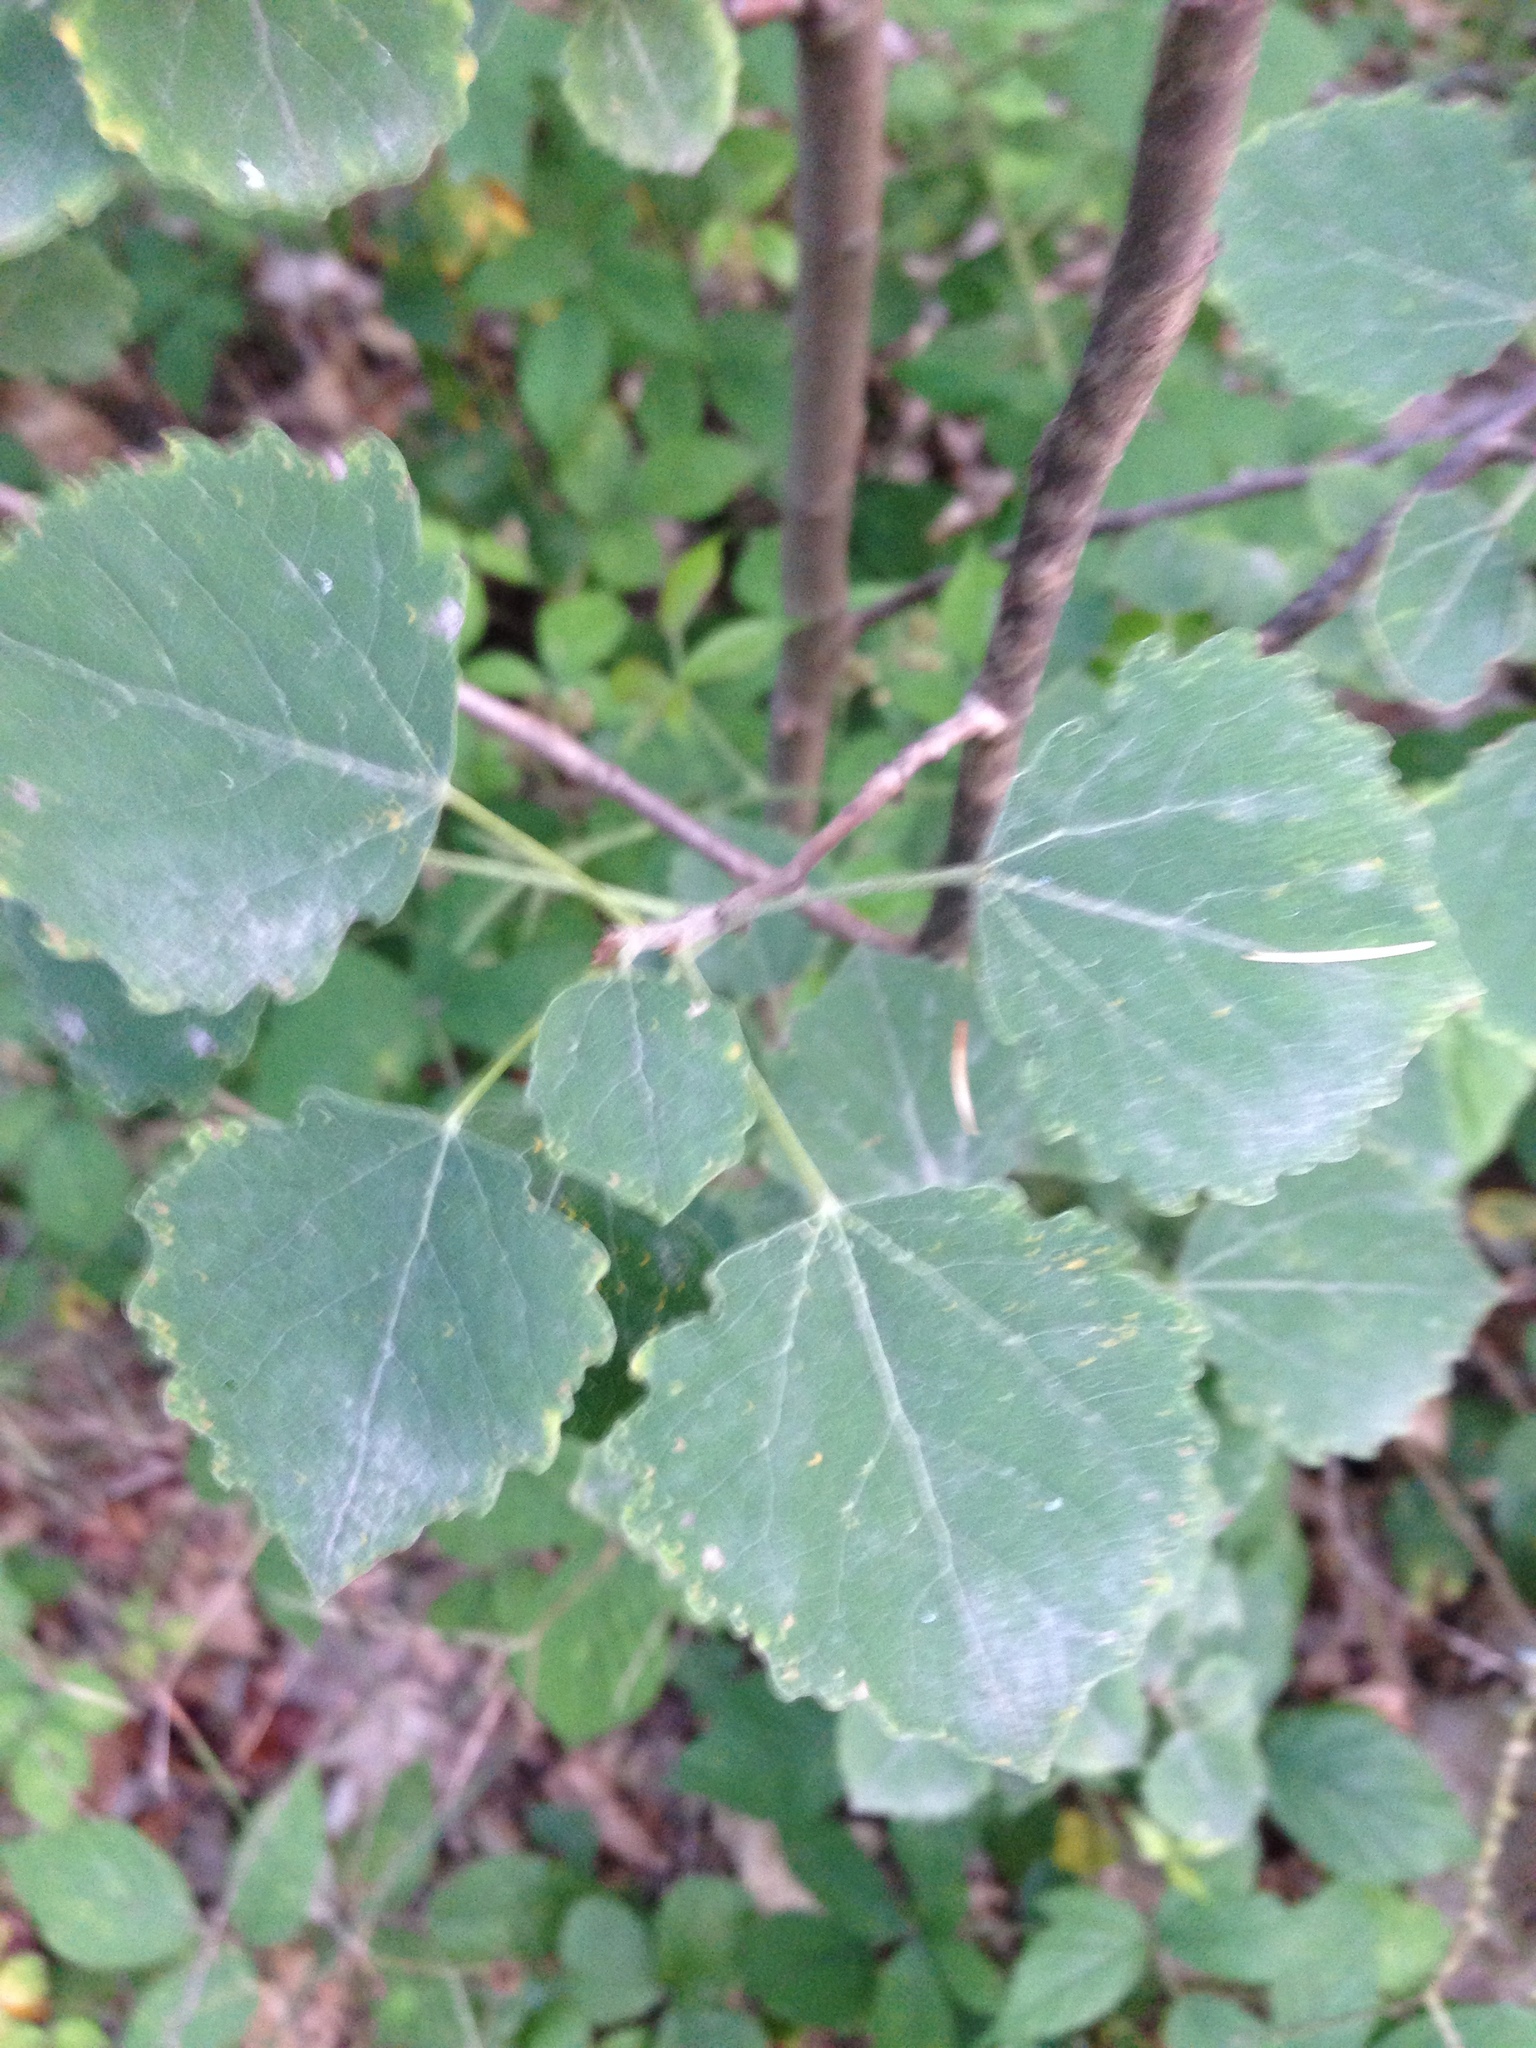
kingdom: Plantae
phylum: Tracheophyta
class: Magnoliopsida
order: Malpighiales
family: Salicaceae
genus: Populus
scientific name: Populus tremula
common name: European aspen
